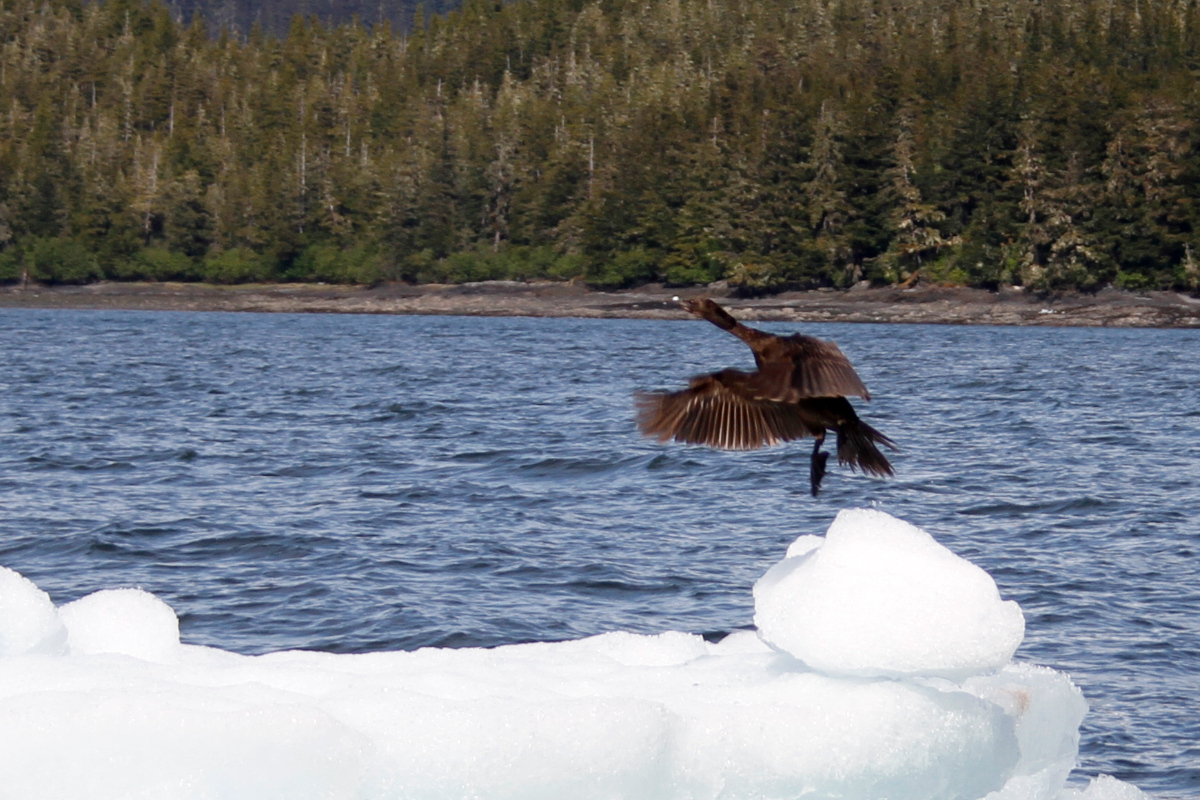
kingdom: Animalia
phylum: Chordata
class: Aves
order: Suliformes
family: Phalacrocoracidae
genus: Phalacrocorax
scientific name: Phalacrocorax pelagicus
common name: Pelagic cormorant
